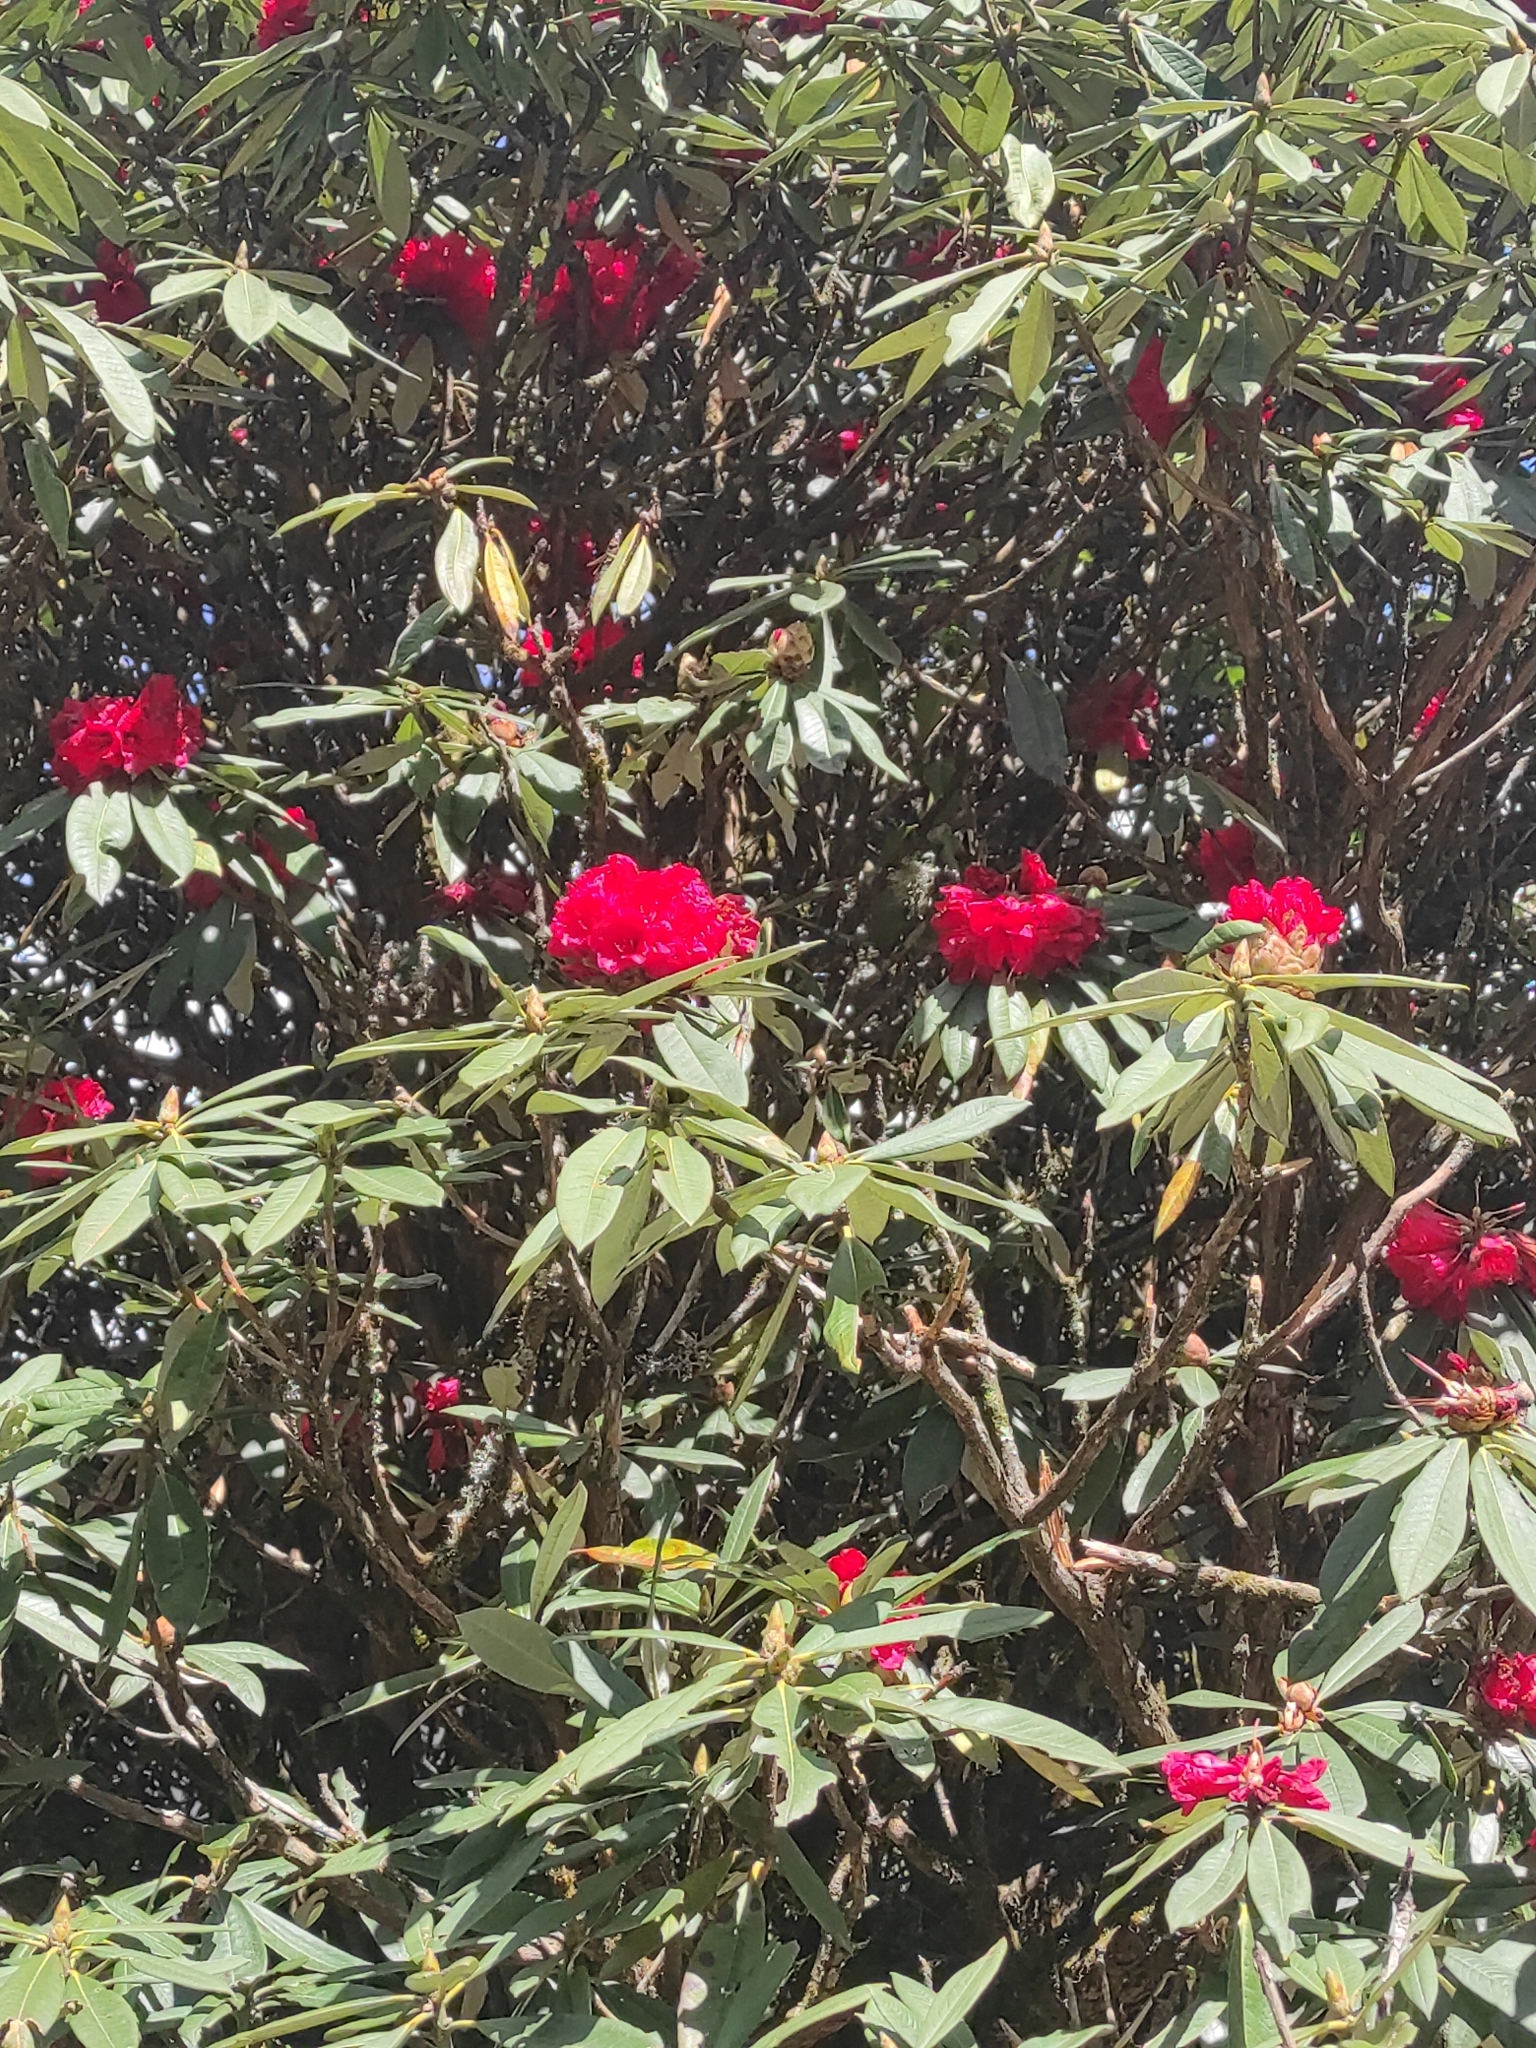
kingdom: Plantae
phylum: Tracheophyta
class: Magnoliopsida
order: Ericales
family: Ericaceae
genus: Rhododendron
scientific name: Rhododendron arboreum
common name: Tree rhododendron
